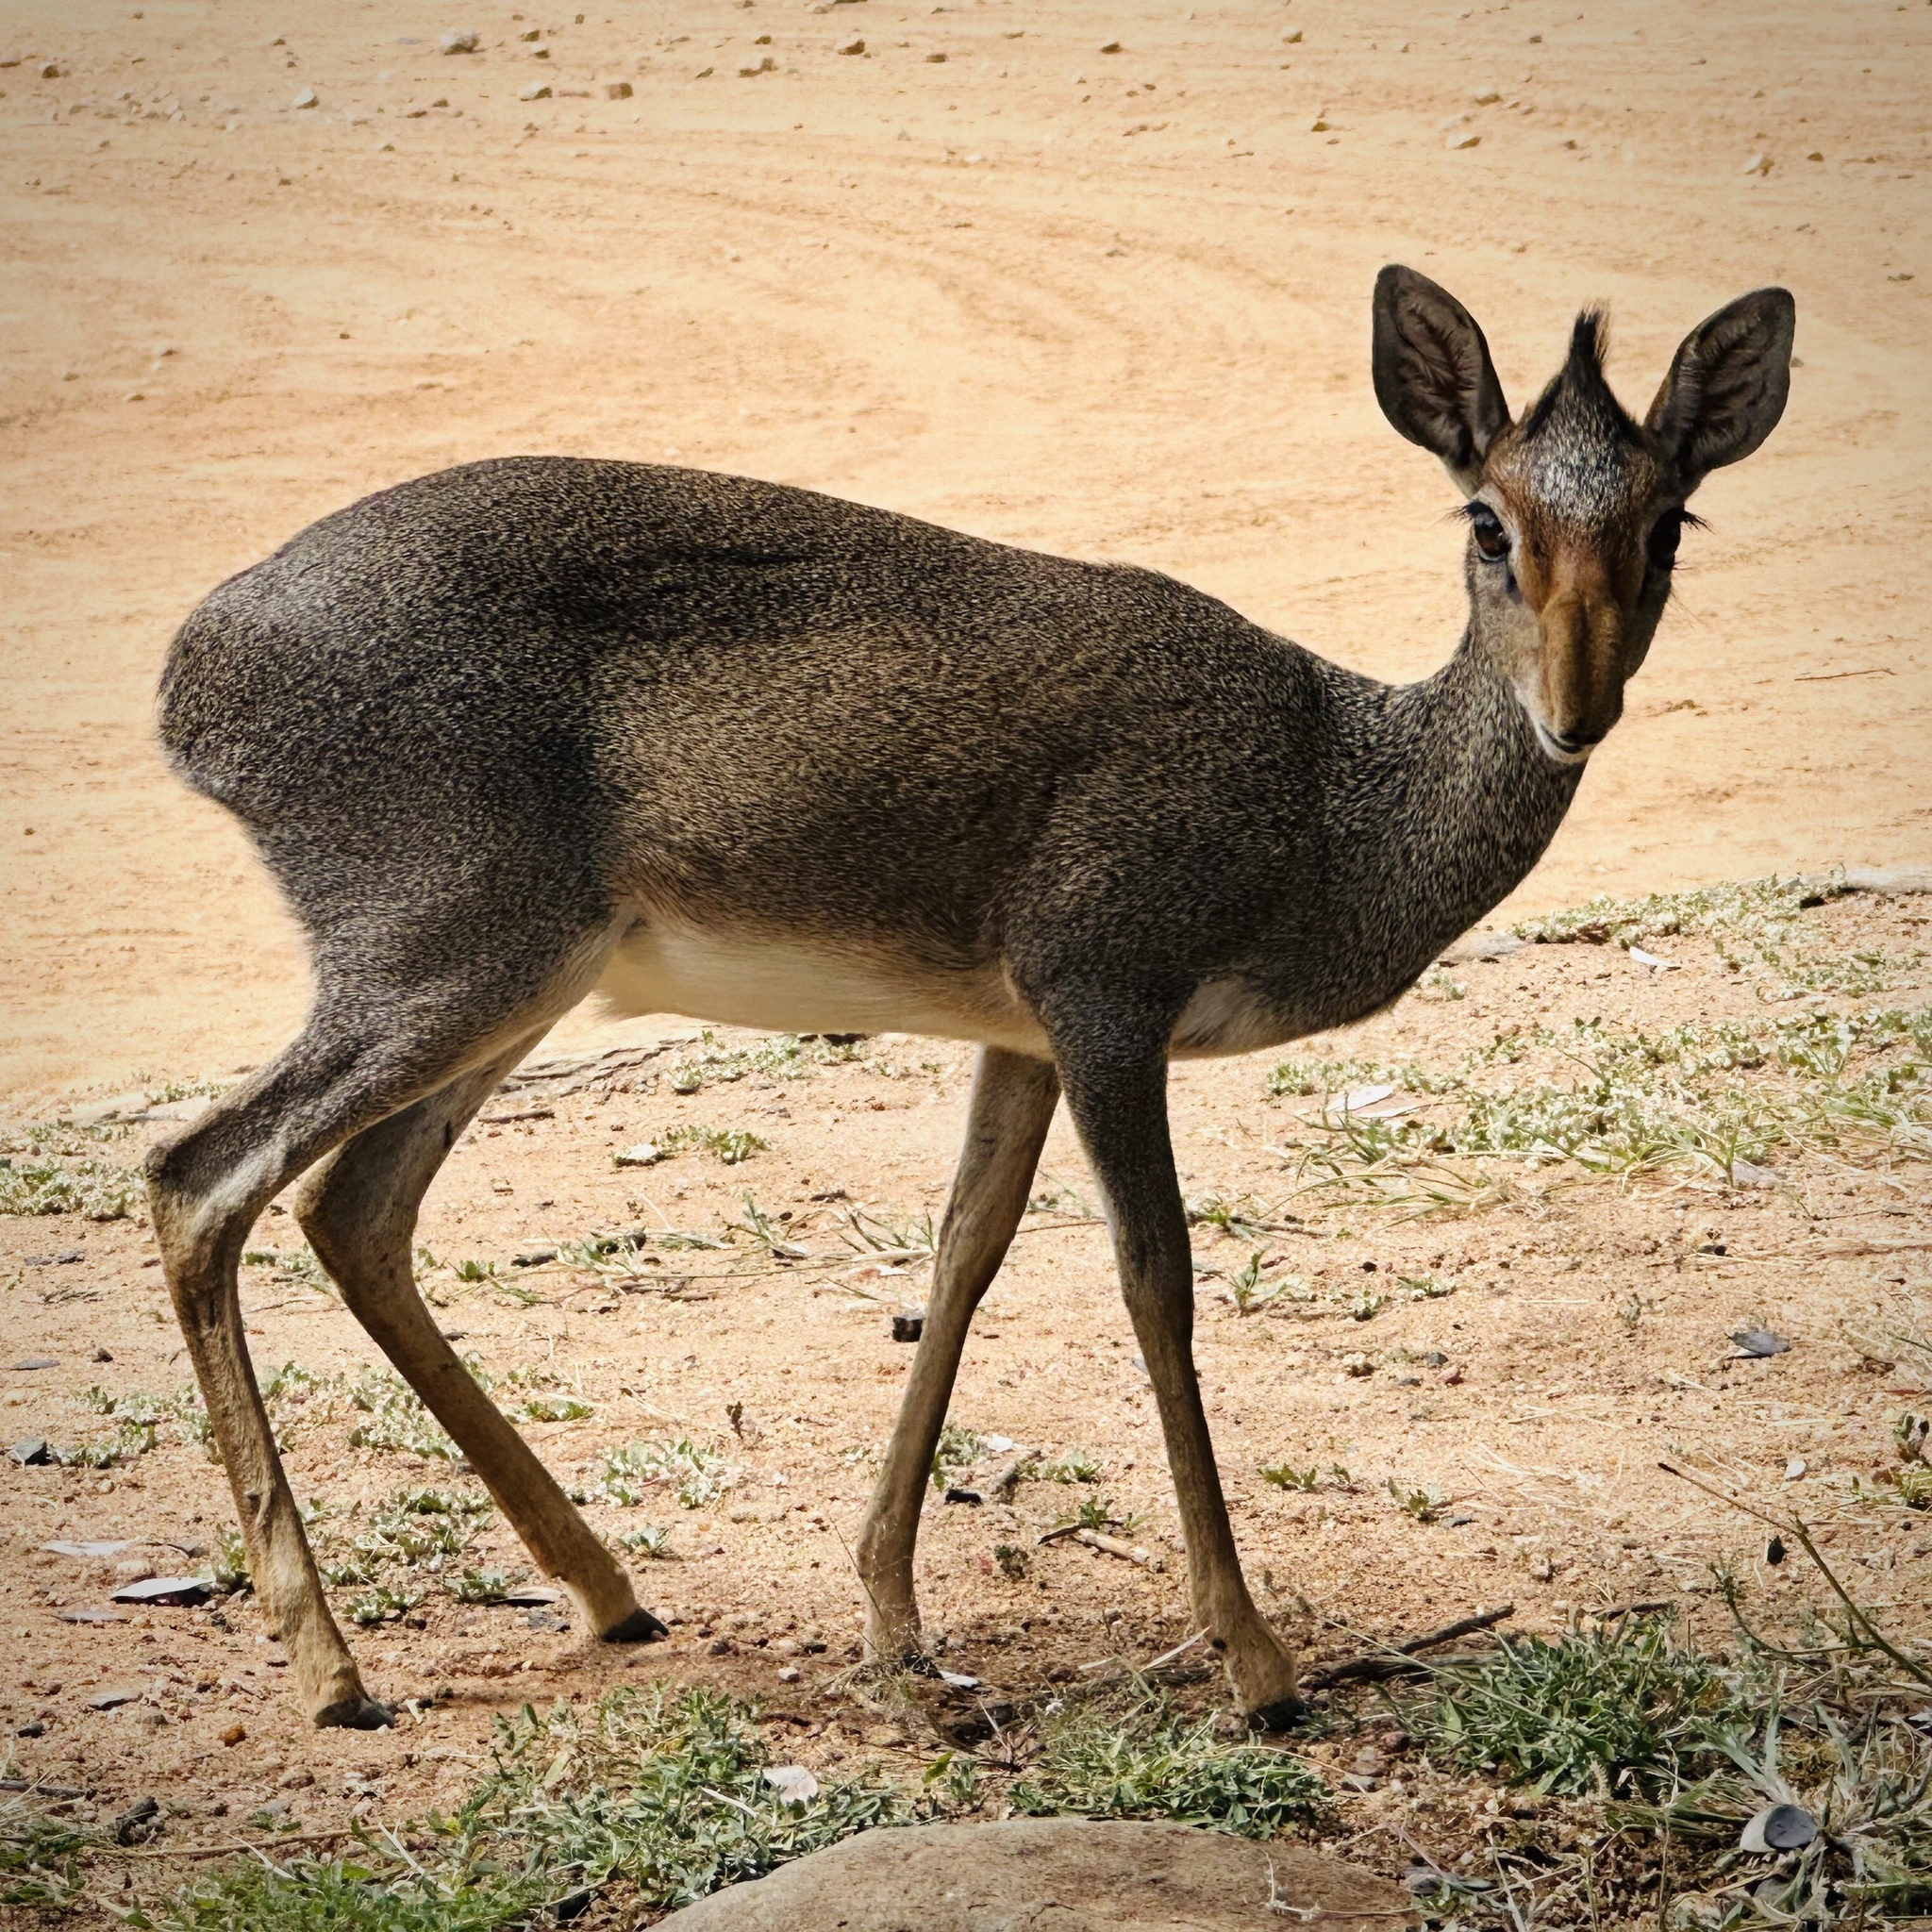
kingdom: Animalia
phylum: Chordata
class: Mammalia
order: Artiodactyla
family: Bovidae
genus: Madoqua
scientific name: Madoqua guentheri
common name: Günther's dikdik
